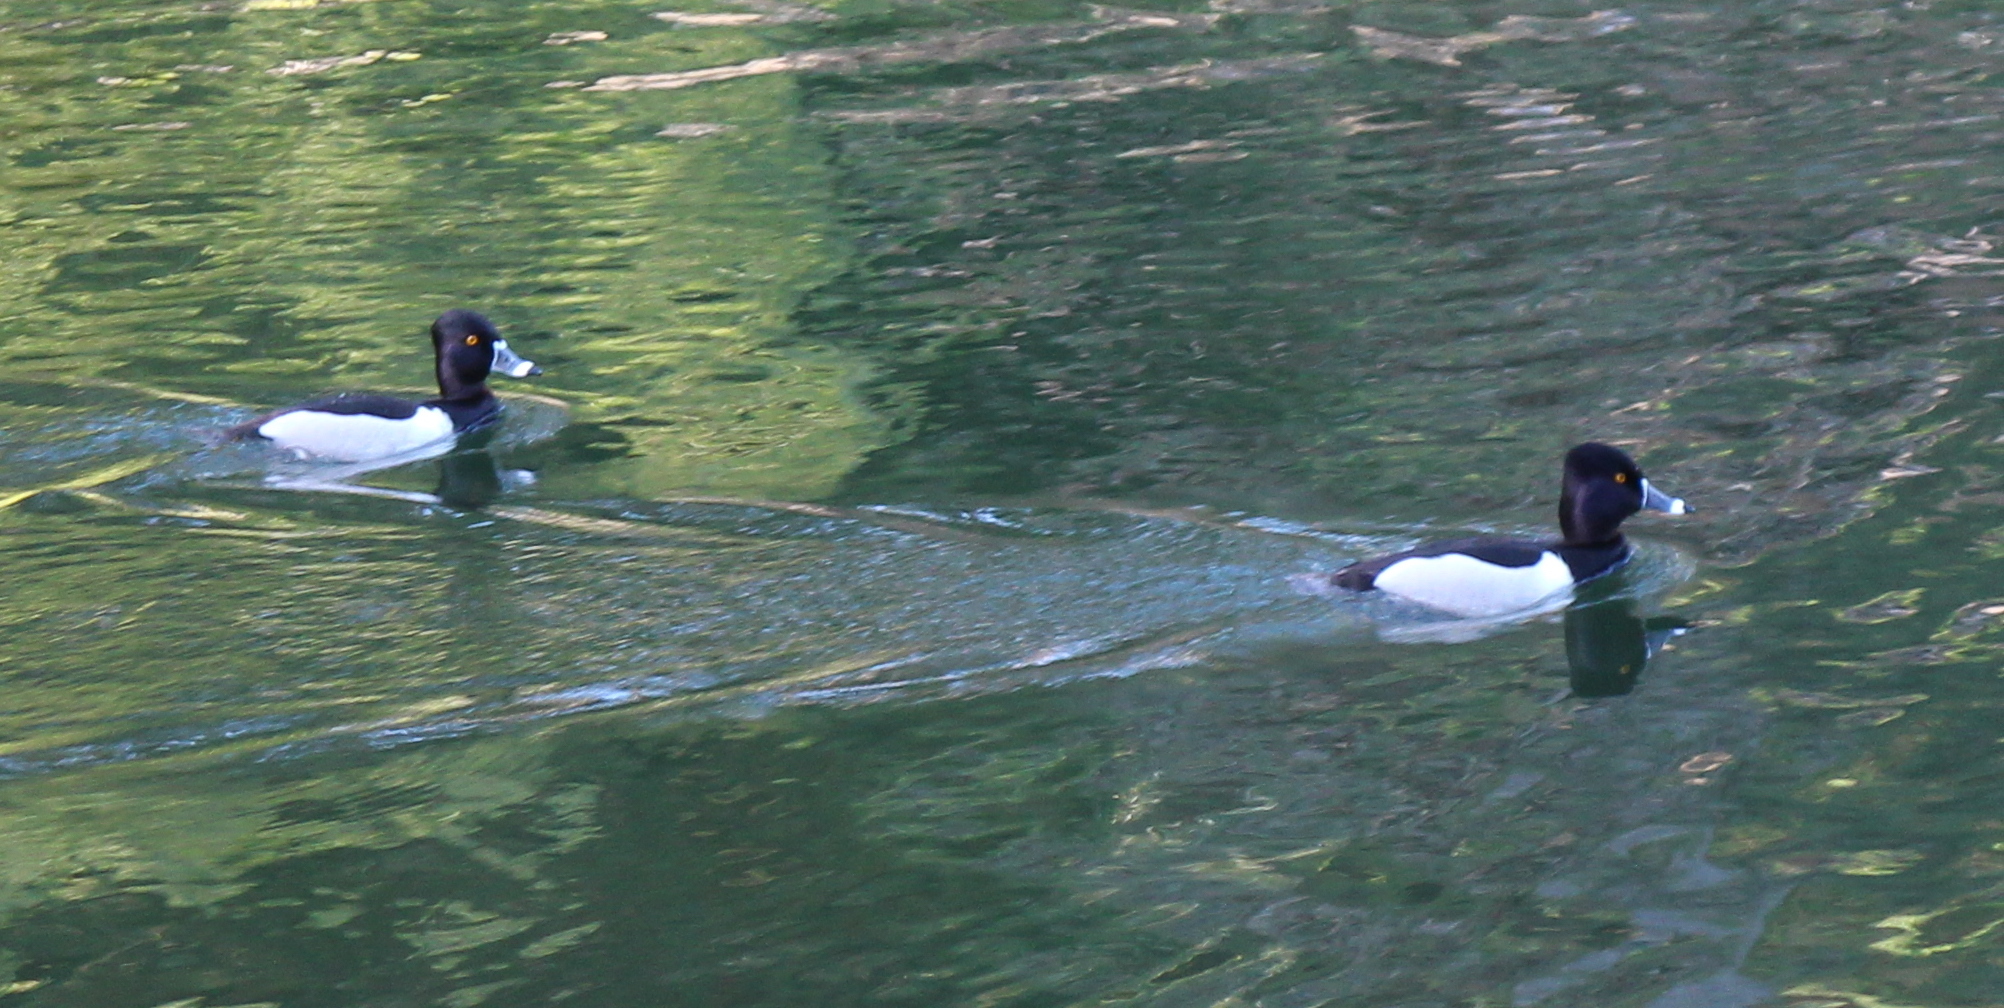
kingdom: Animalia
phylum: Chordata
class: Aves
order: Anseriformes
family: Anatidae
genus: Aythya
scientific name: Aythya collaris
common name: Ring-necked duck
